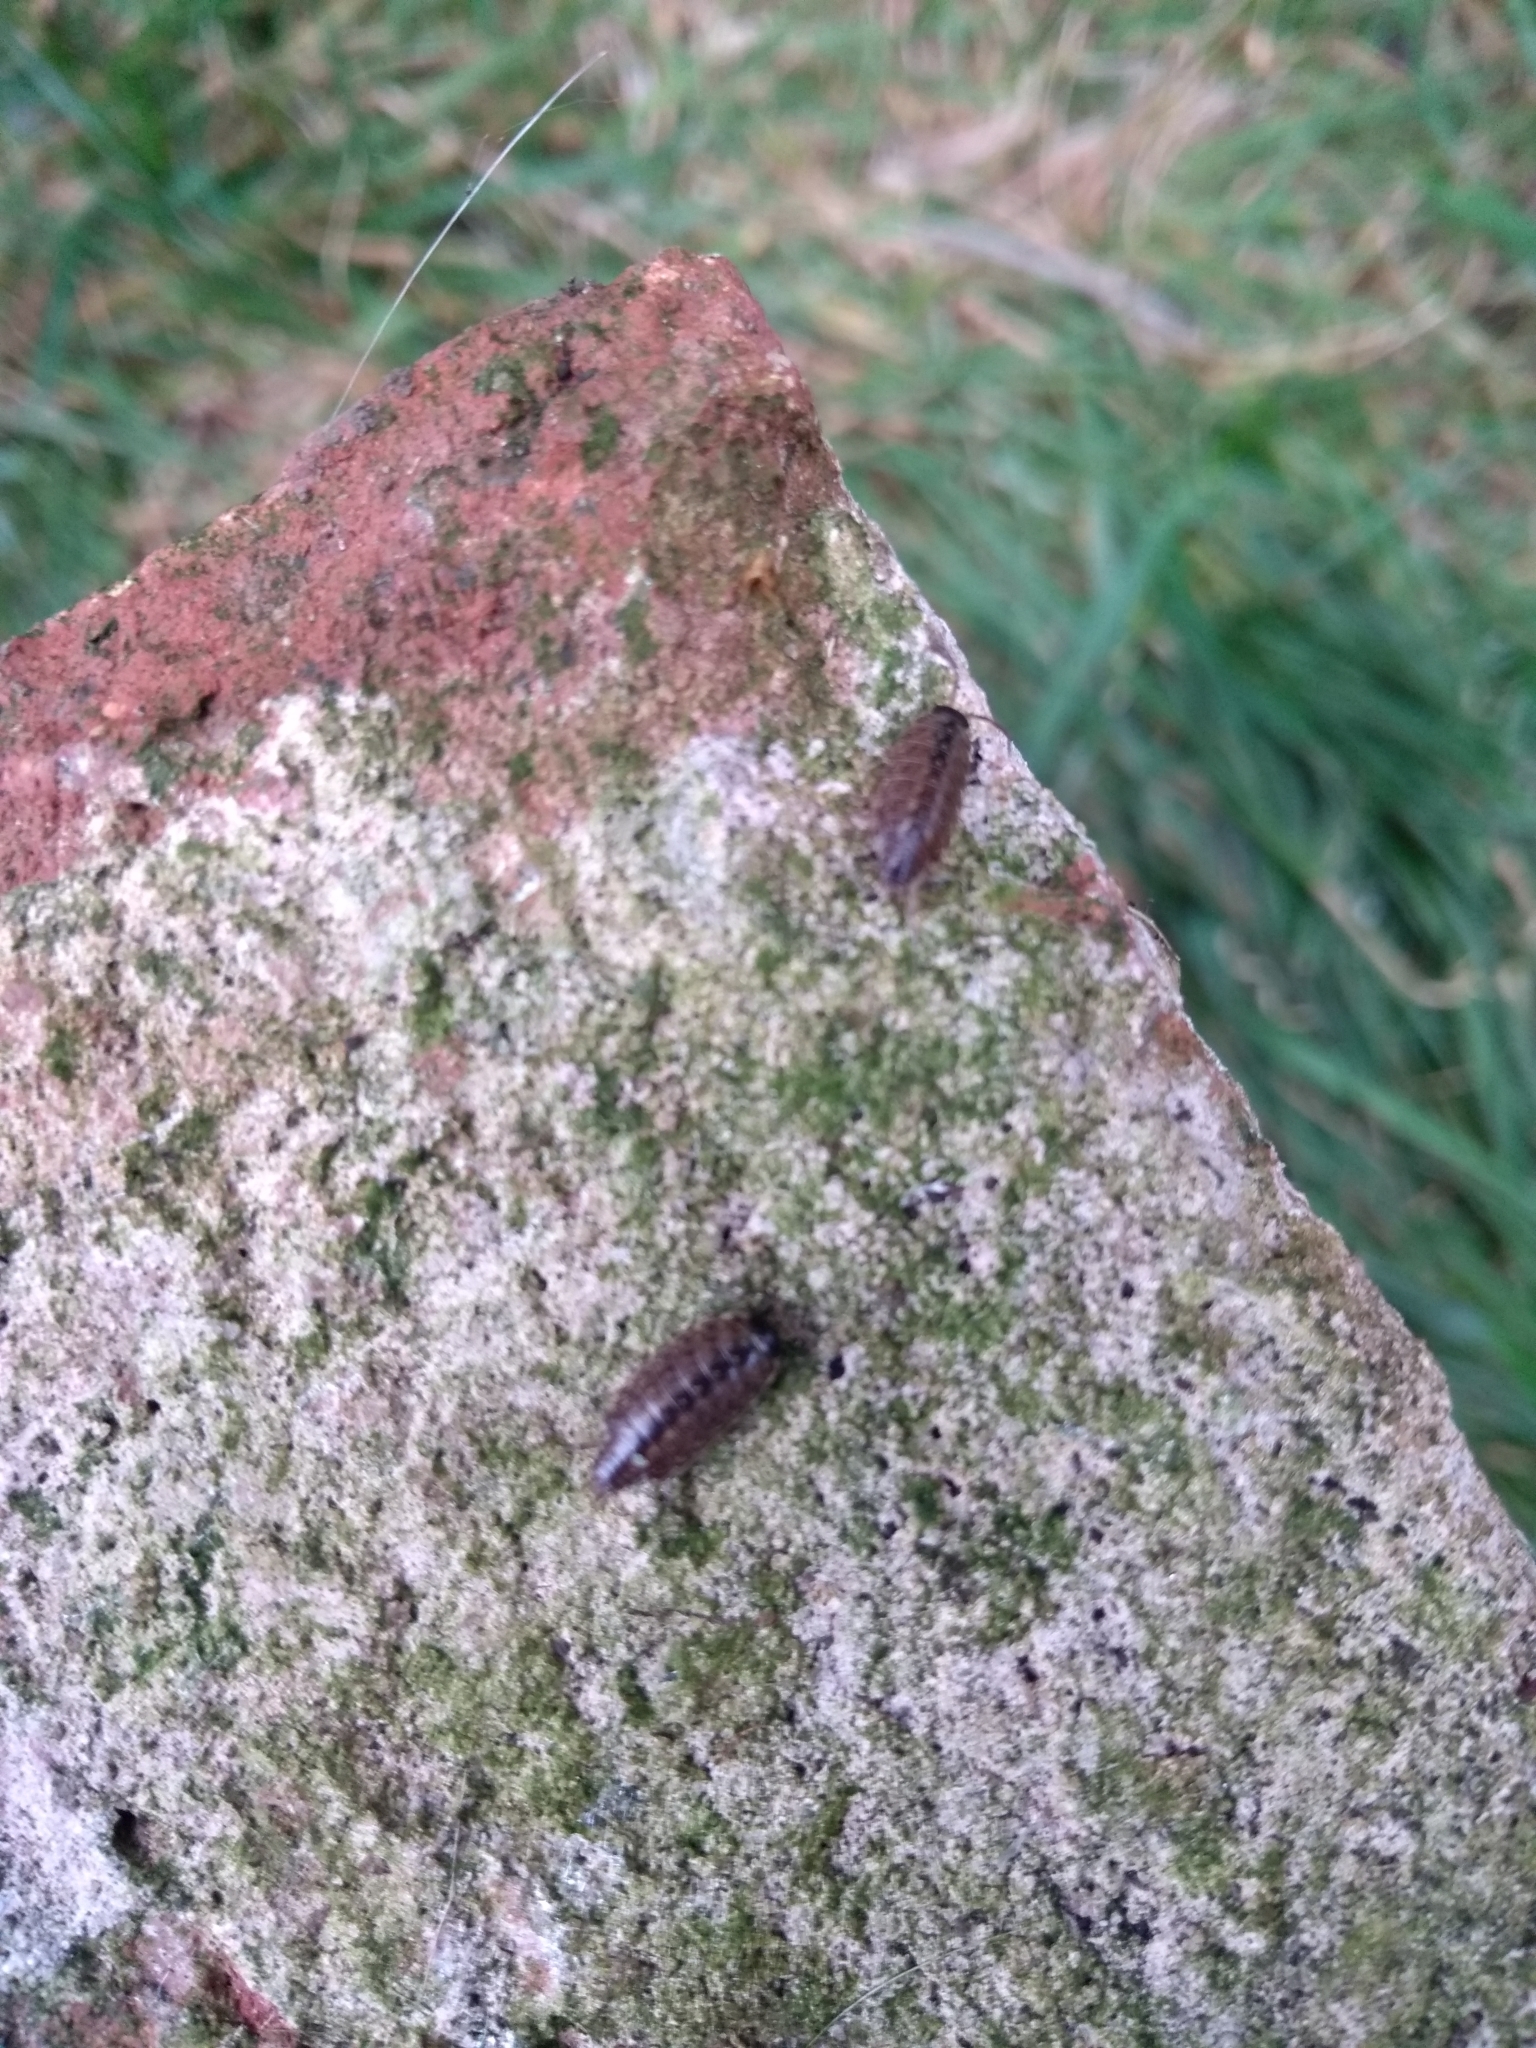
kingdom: Animalia
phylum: Arthropoda
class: Malacostraca
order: Isopoda
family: Philosciidae
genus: Philoscia
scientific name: Philoscia muscorum
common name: Common striped woodlouse
